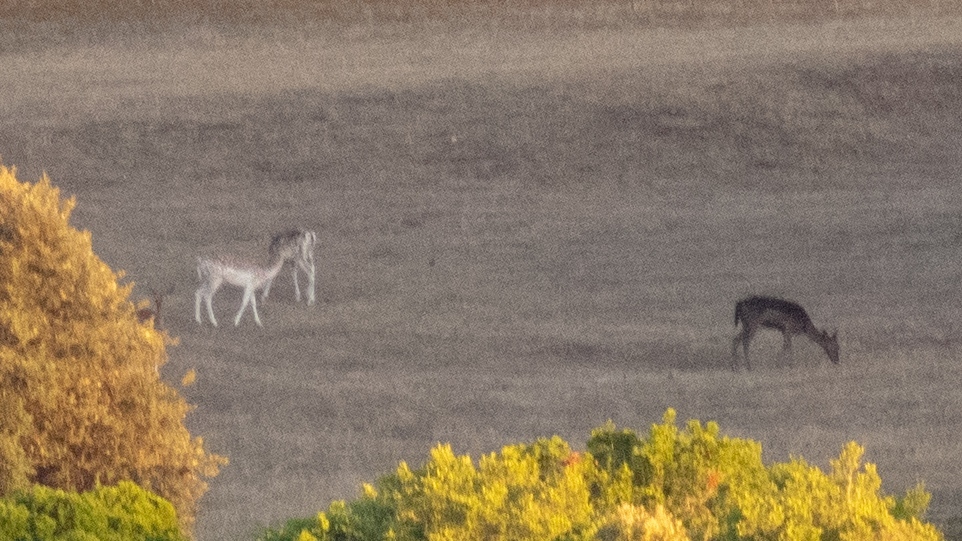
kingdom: Animalia
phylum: Chordata
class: Mammalia
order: Artiodactyla
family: Cervidae
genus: Dama
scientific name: Dama dama
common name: Fallow deer
